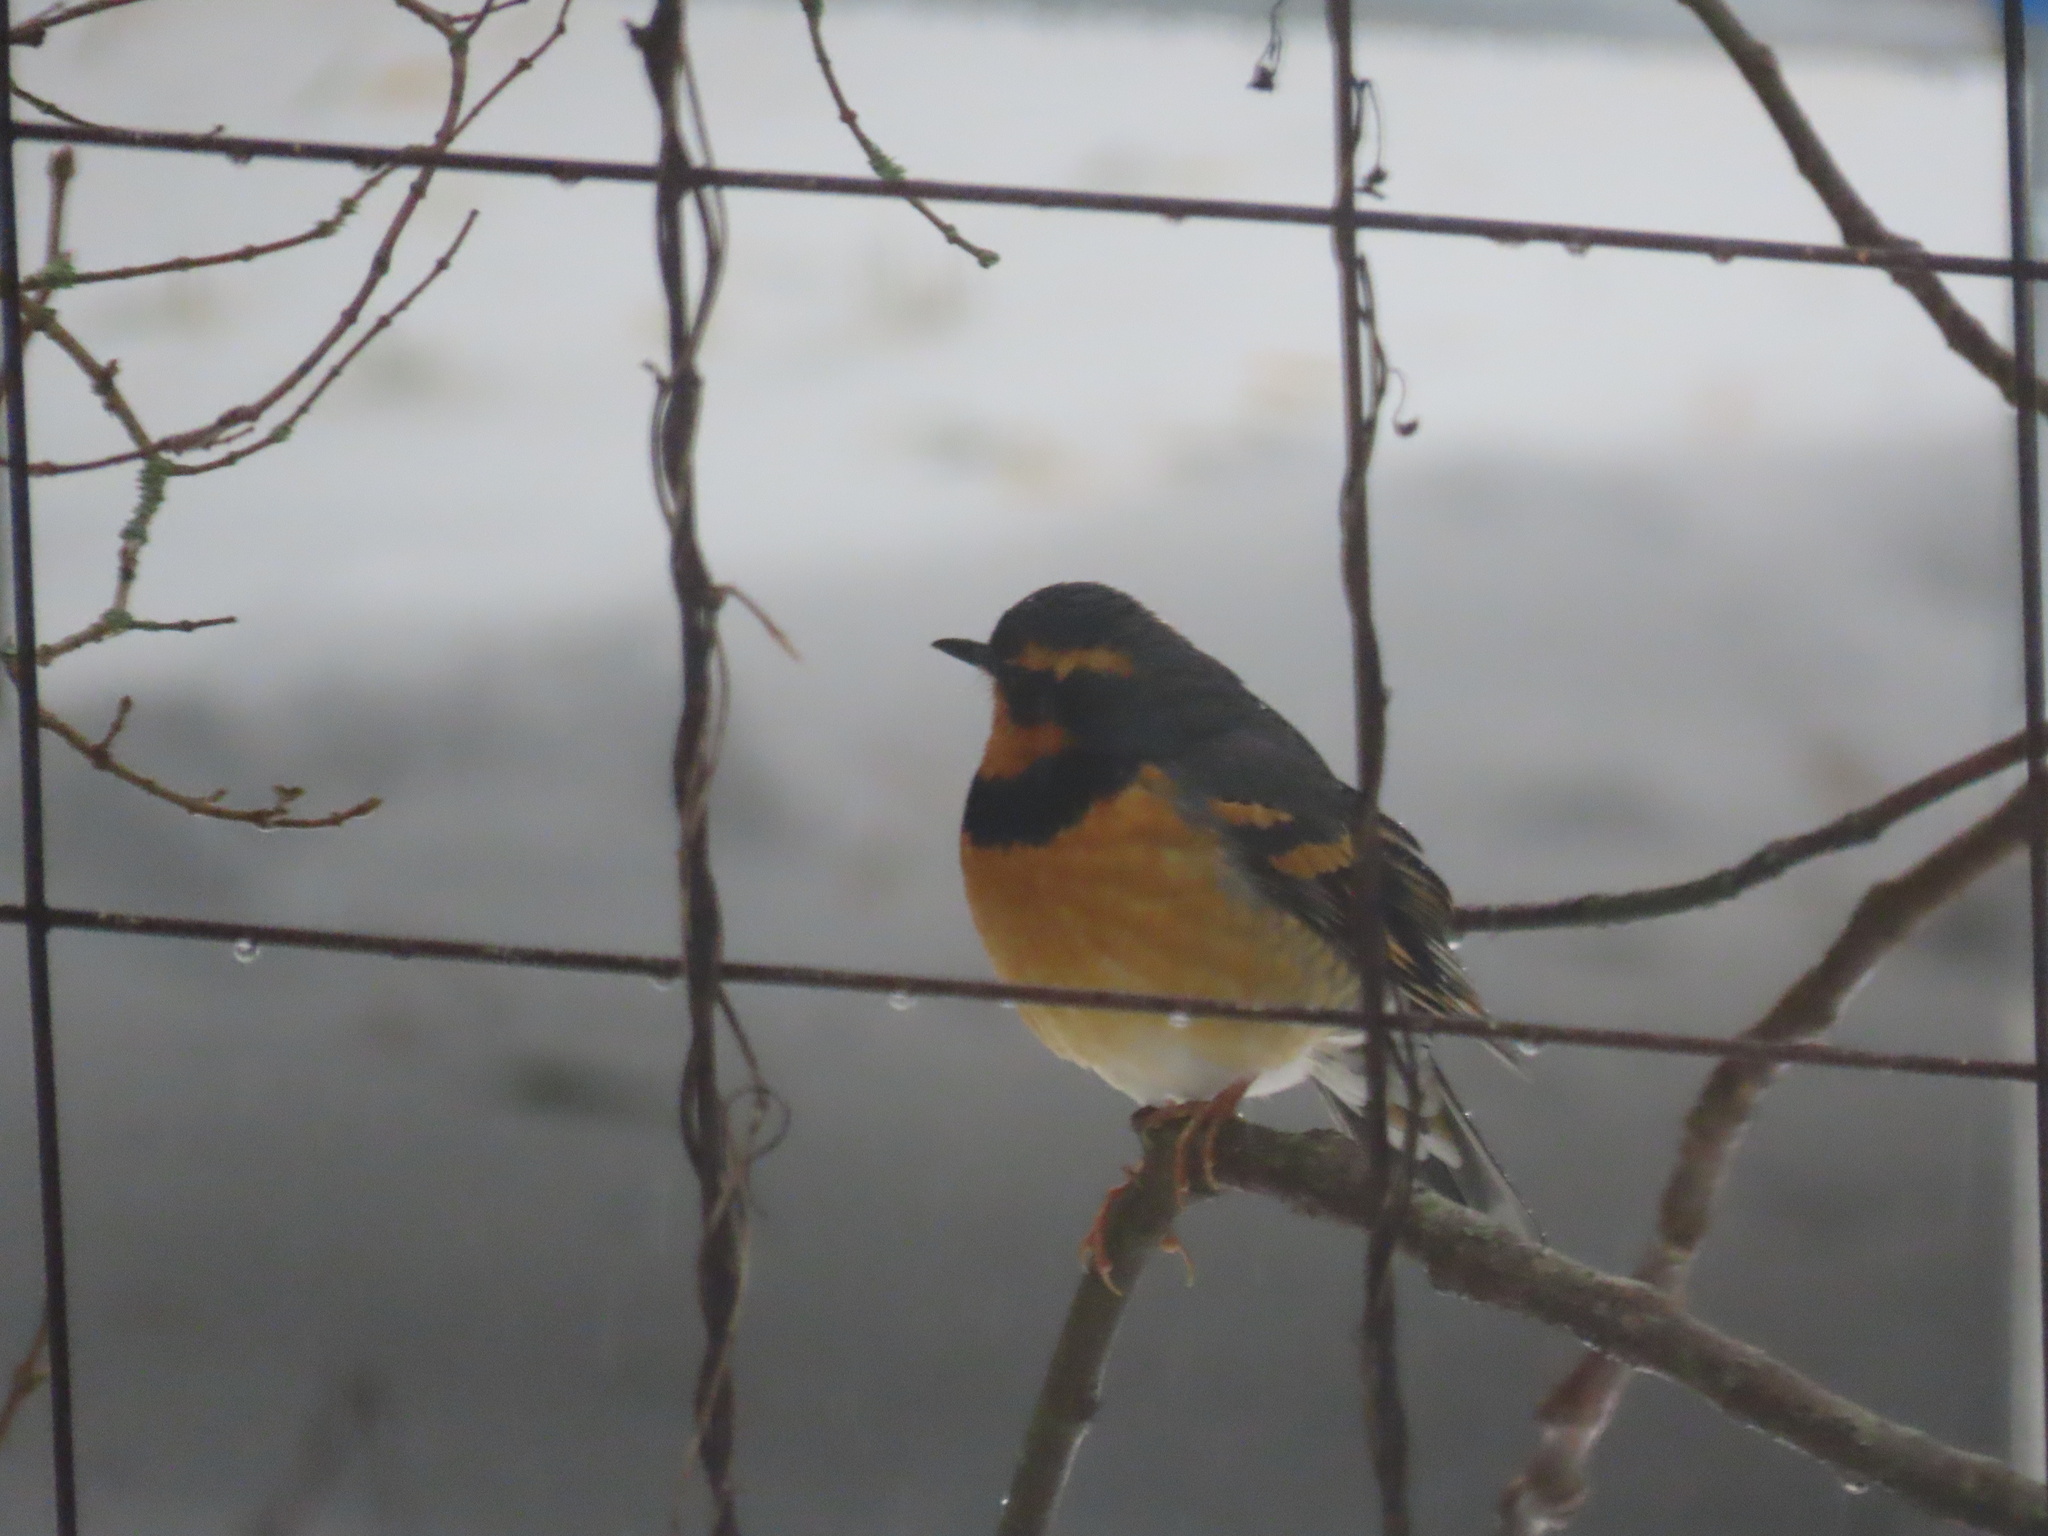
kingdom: Animalia
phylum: Chordata
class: Aves
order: Passeriformes
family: Turdidae
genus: Ixoreus
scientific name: Ixoreus naevius
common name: Varied thrush
